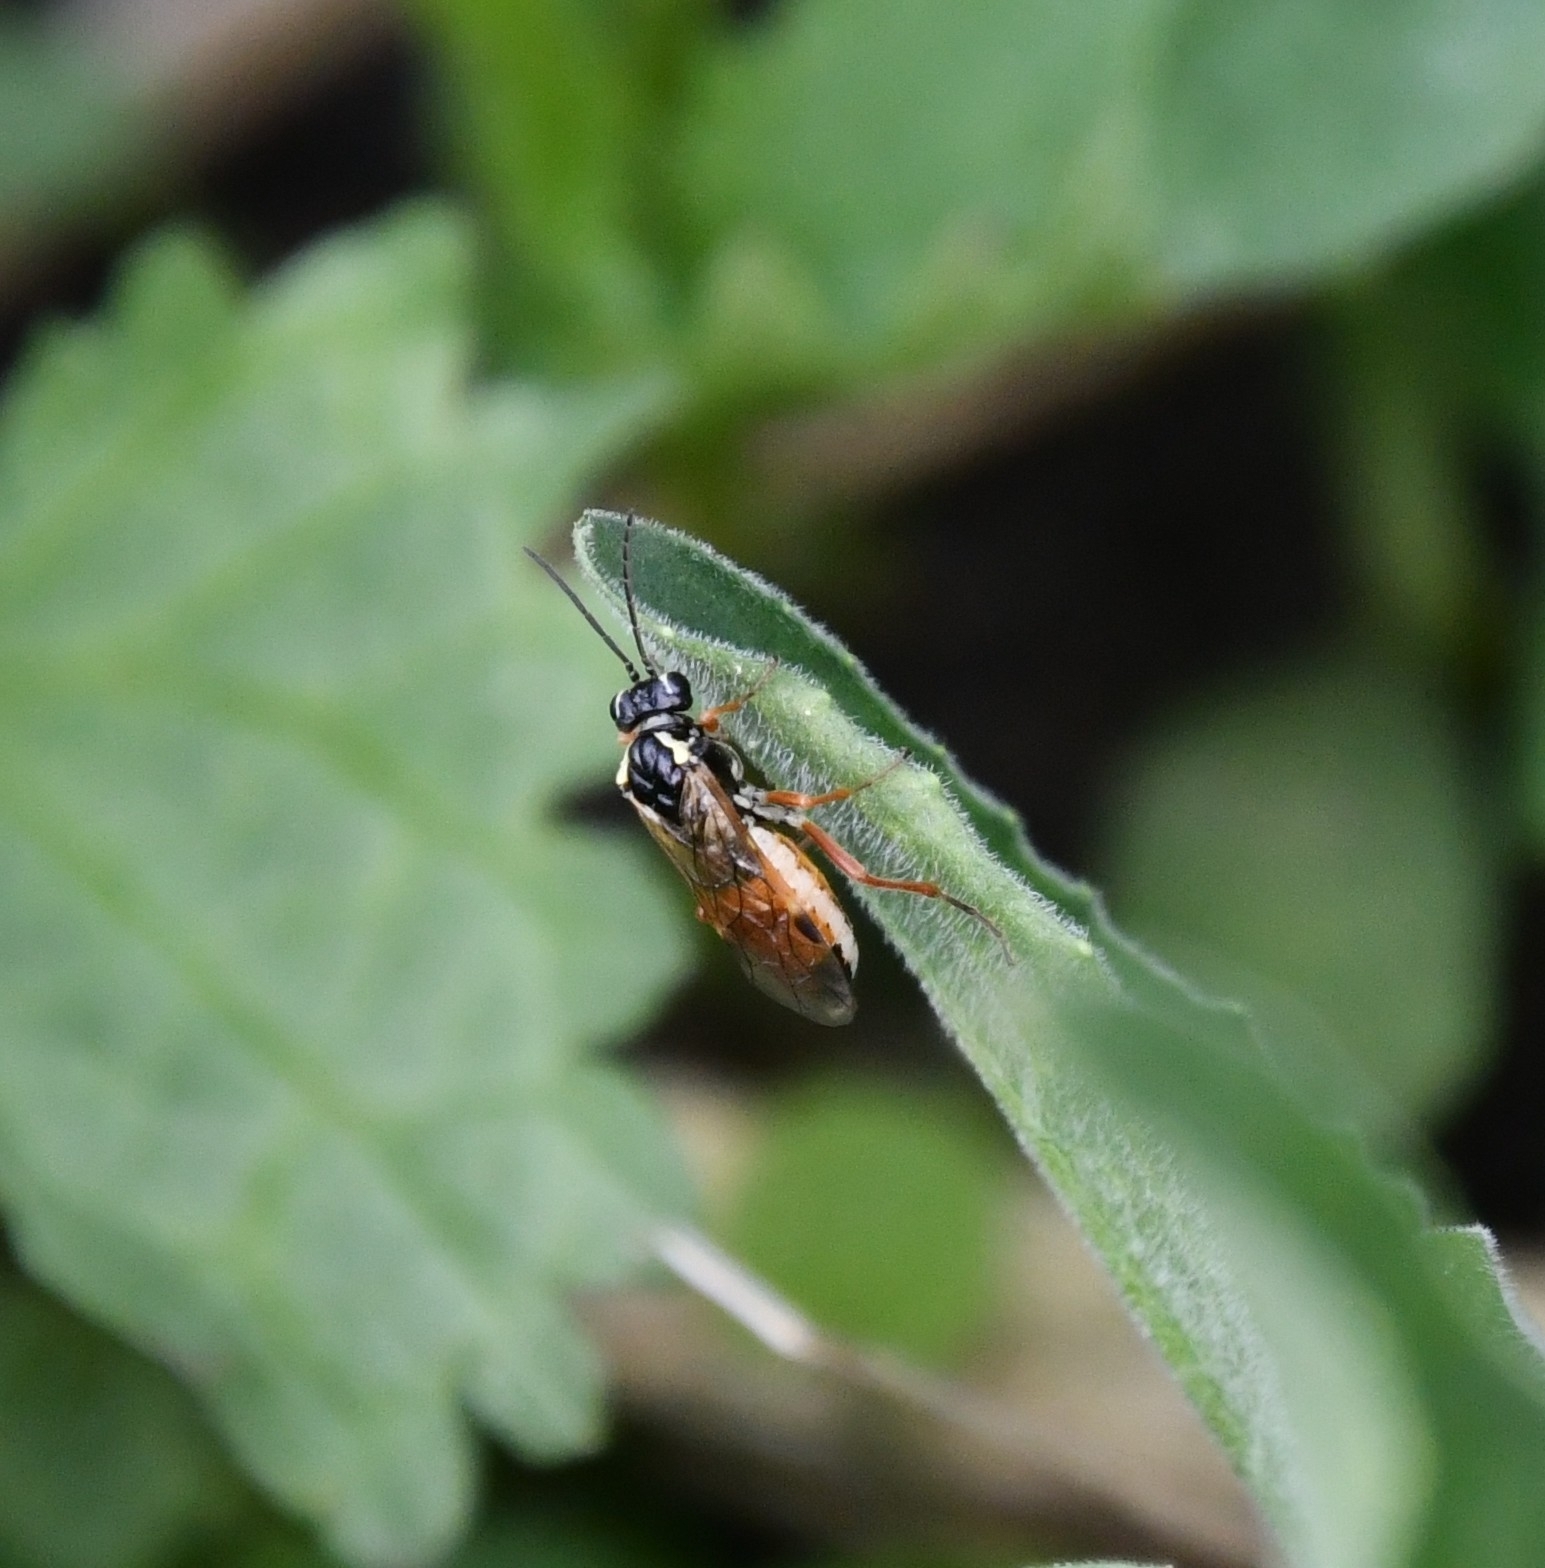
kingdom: Animalia
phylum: Arthropoda
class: Insecta
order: Hymenoptera
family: Tenthredinidae
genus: Aglaostigma
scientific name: Aglaostigma fulvipes
